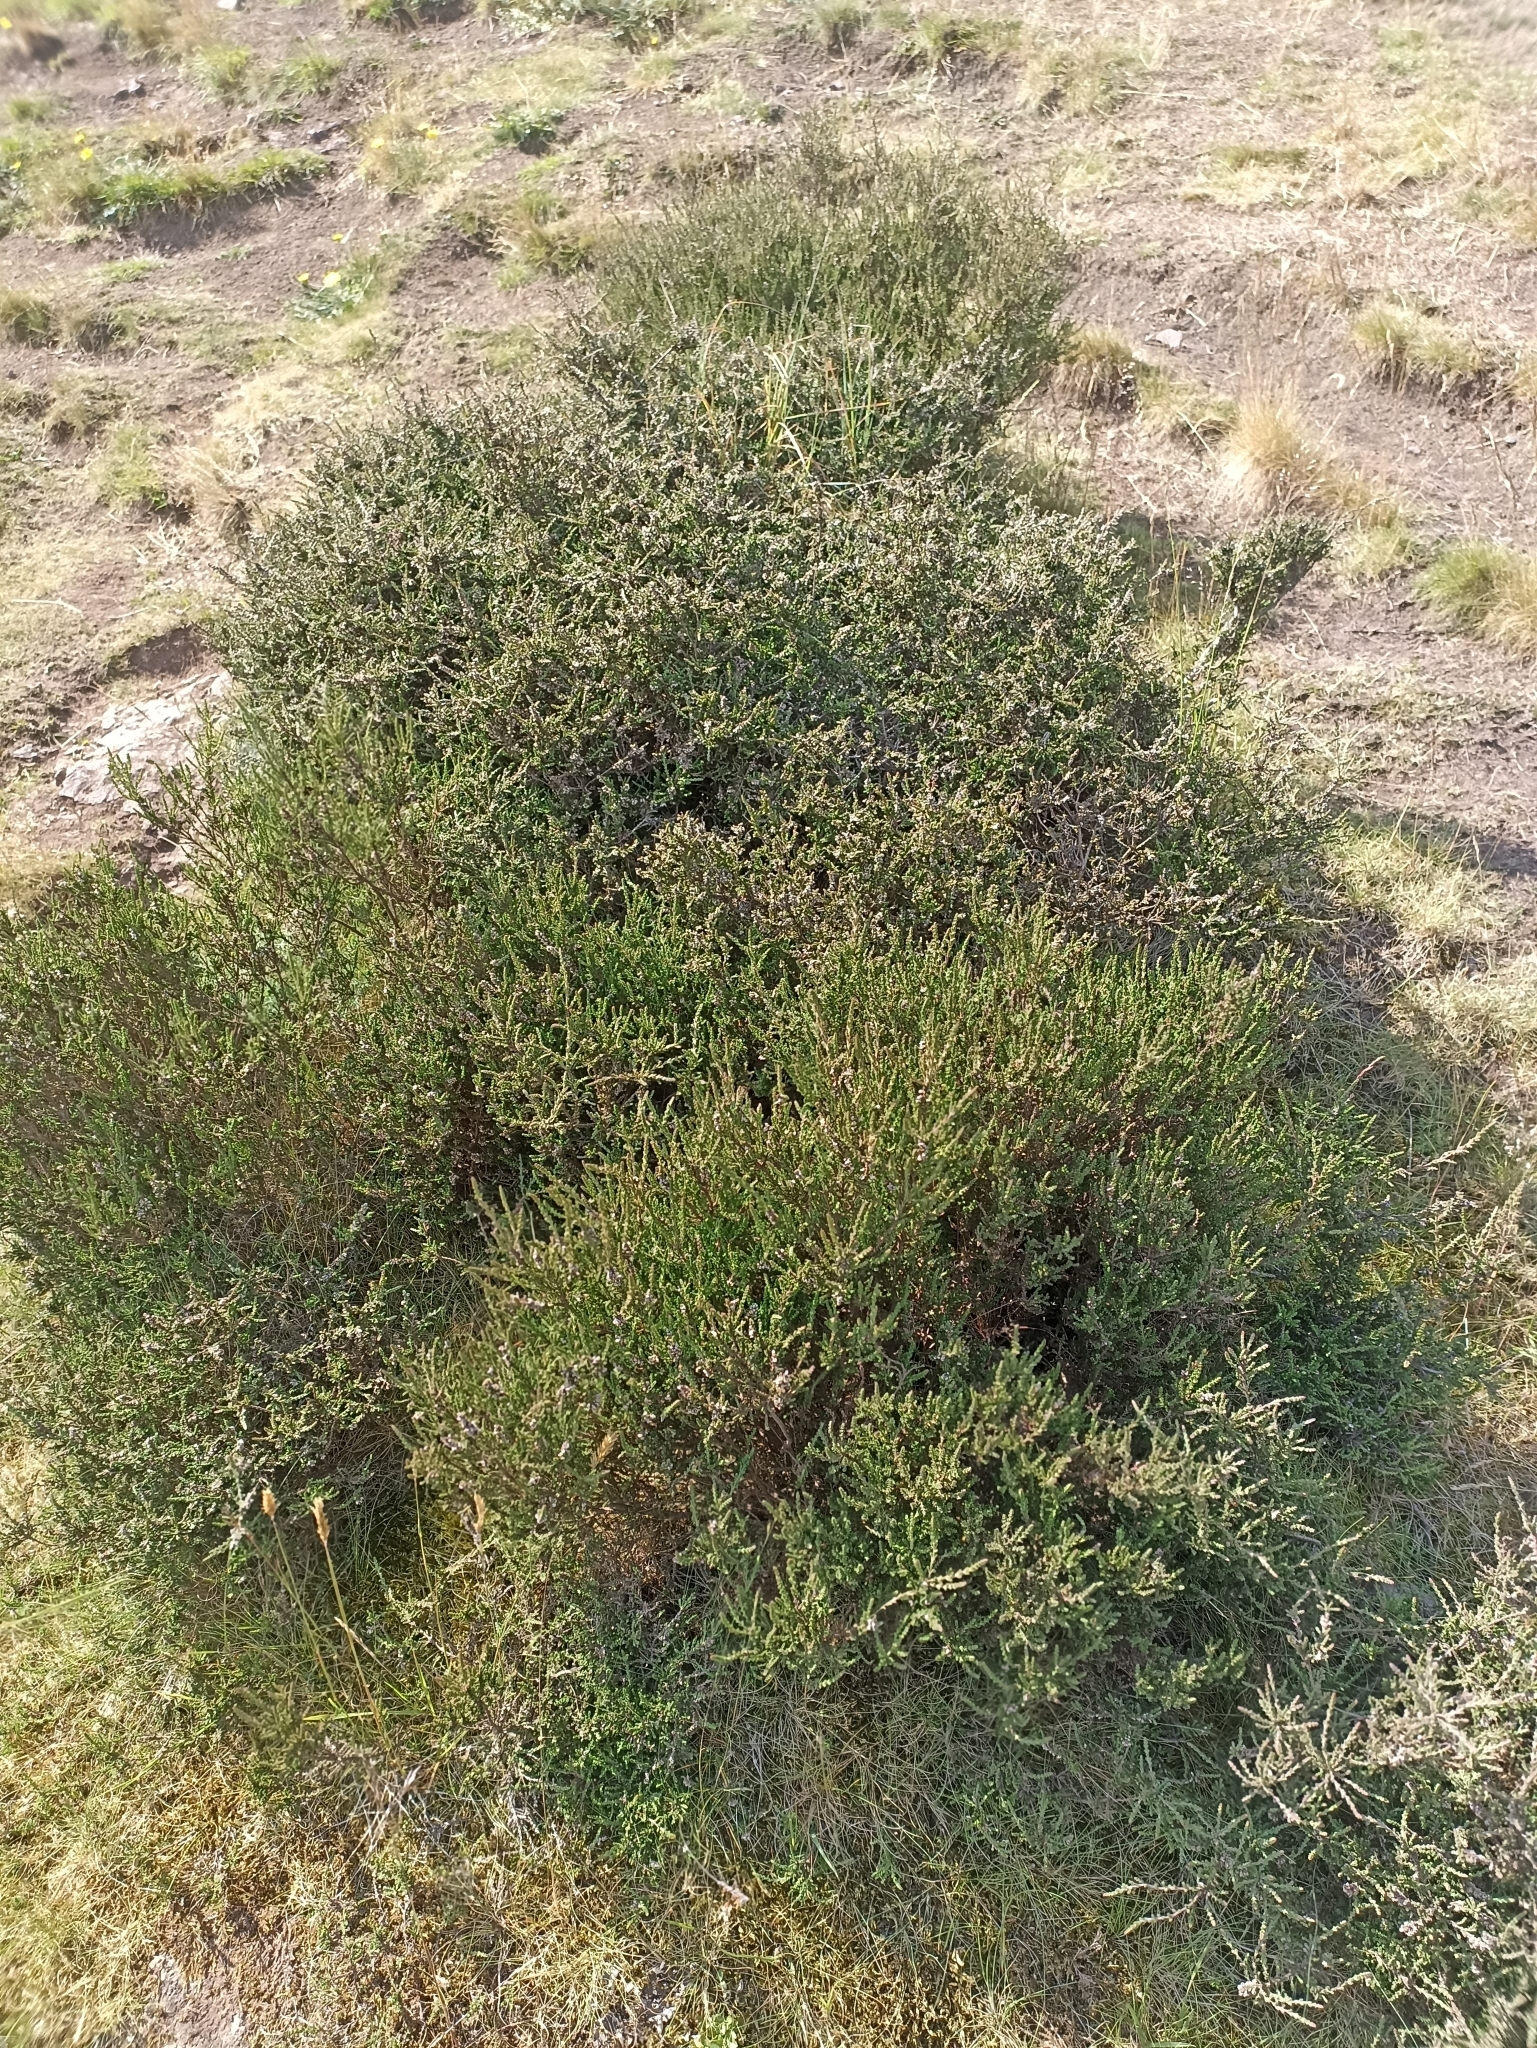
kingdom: Plantae
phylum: Tracheophyta
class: Magnoliopsida
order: Ericales
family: Ericaceae
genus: Calluna
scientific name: Calluna vulgaris
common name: Heather
